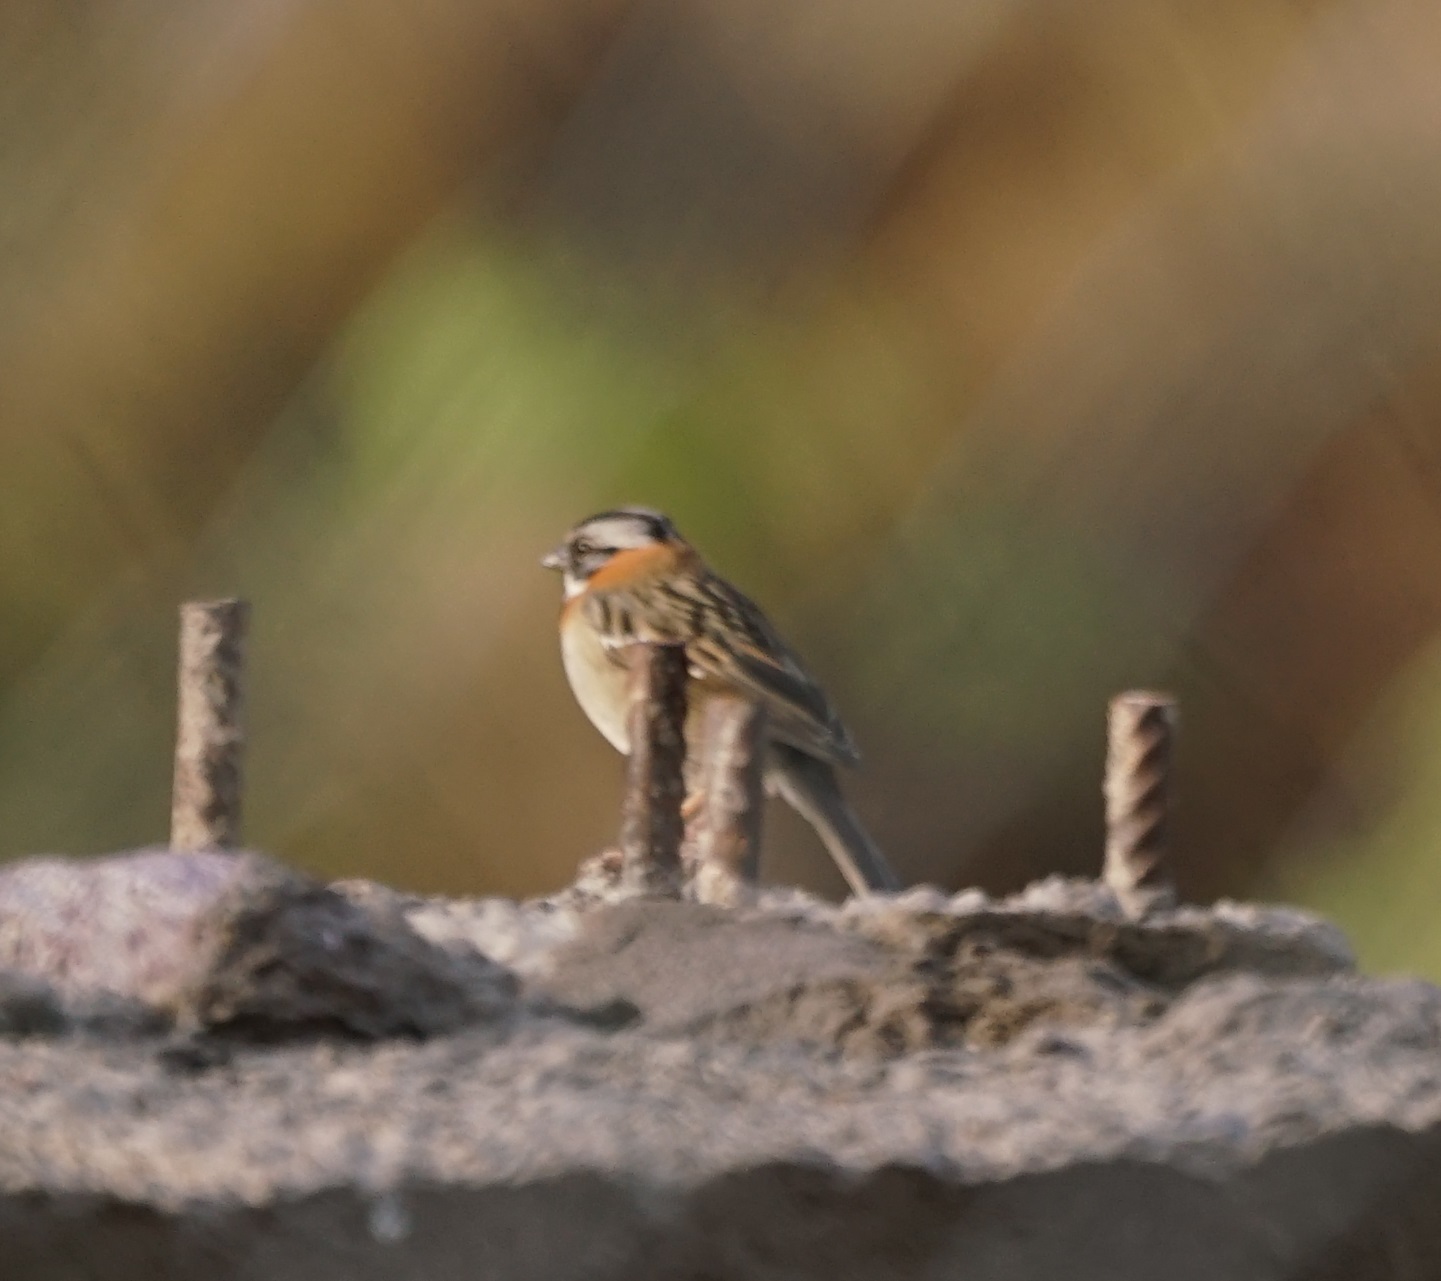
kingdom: Animalia
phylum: Chordata
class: Aves
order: Passeriformes
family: Passerellidae
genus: Zonotrichia
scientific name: Zonotrichia capensis
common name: Rufous-collared sparrow
